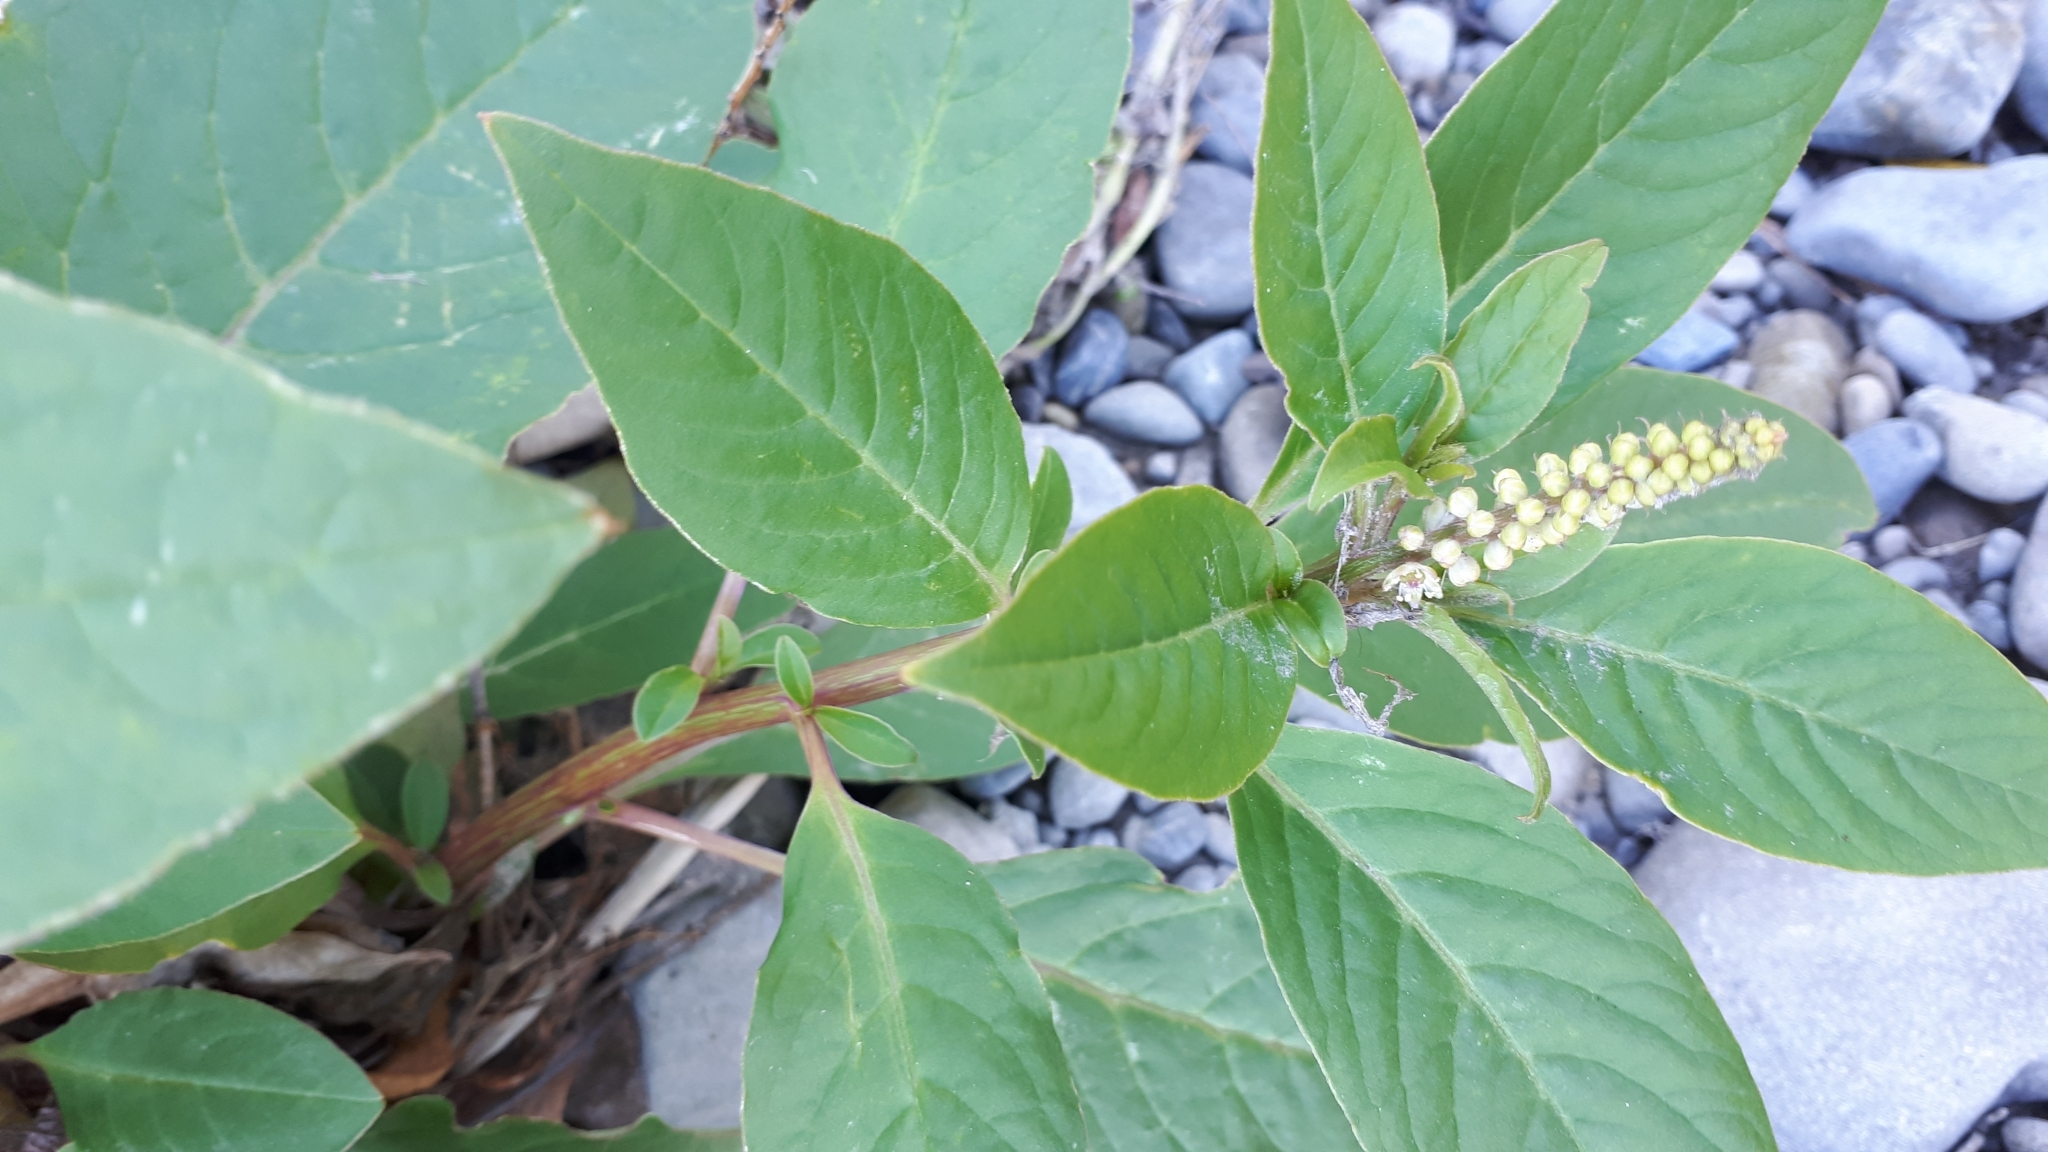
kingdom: Plantae
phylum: Tracheophyta
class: Magnoliopsida
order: Caryophyllales
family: Phytolaccaceae
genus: Phytolacca
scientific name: Phytolacca icosandra
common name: Button pokeweed
